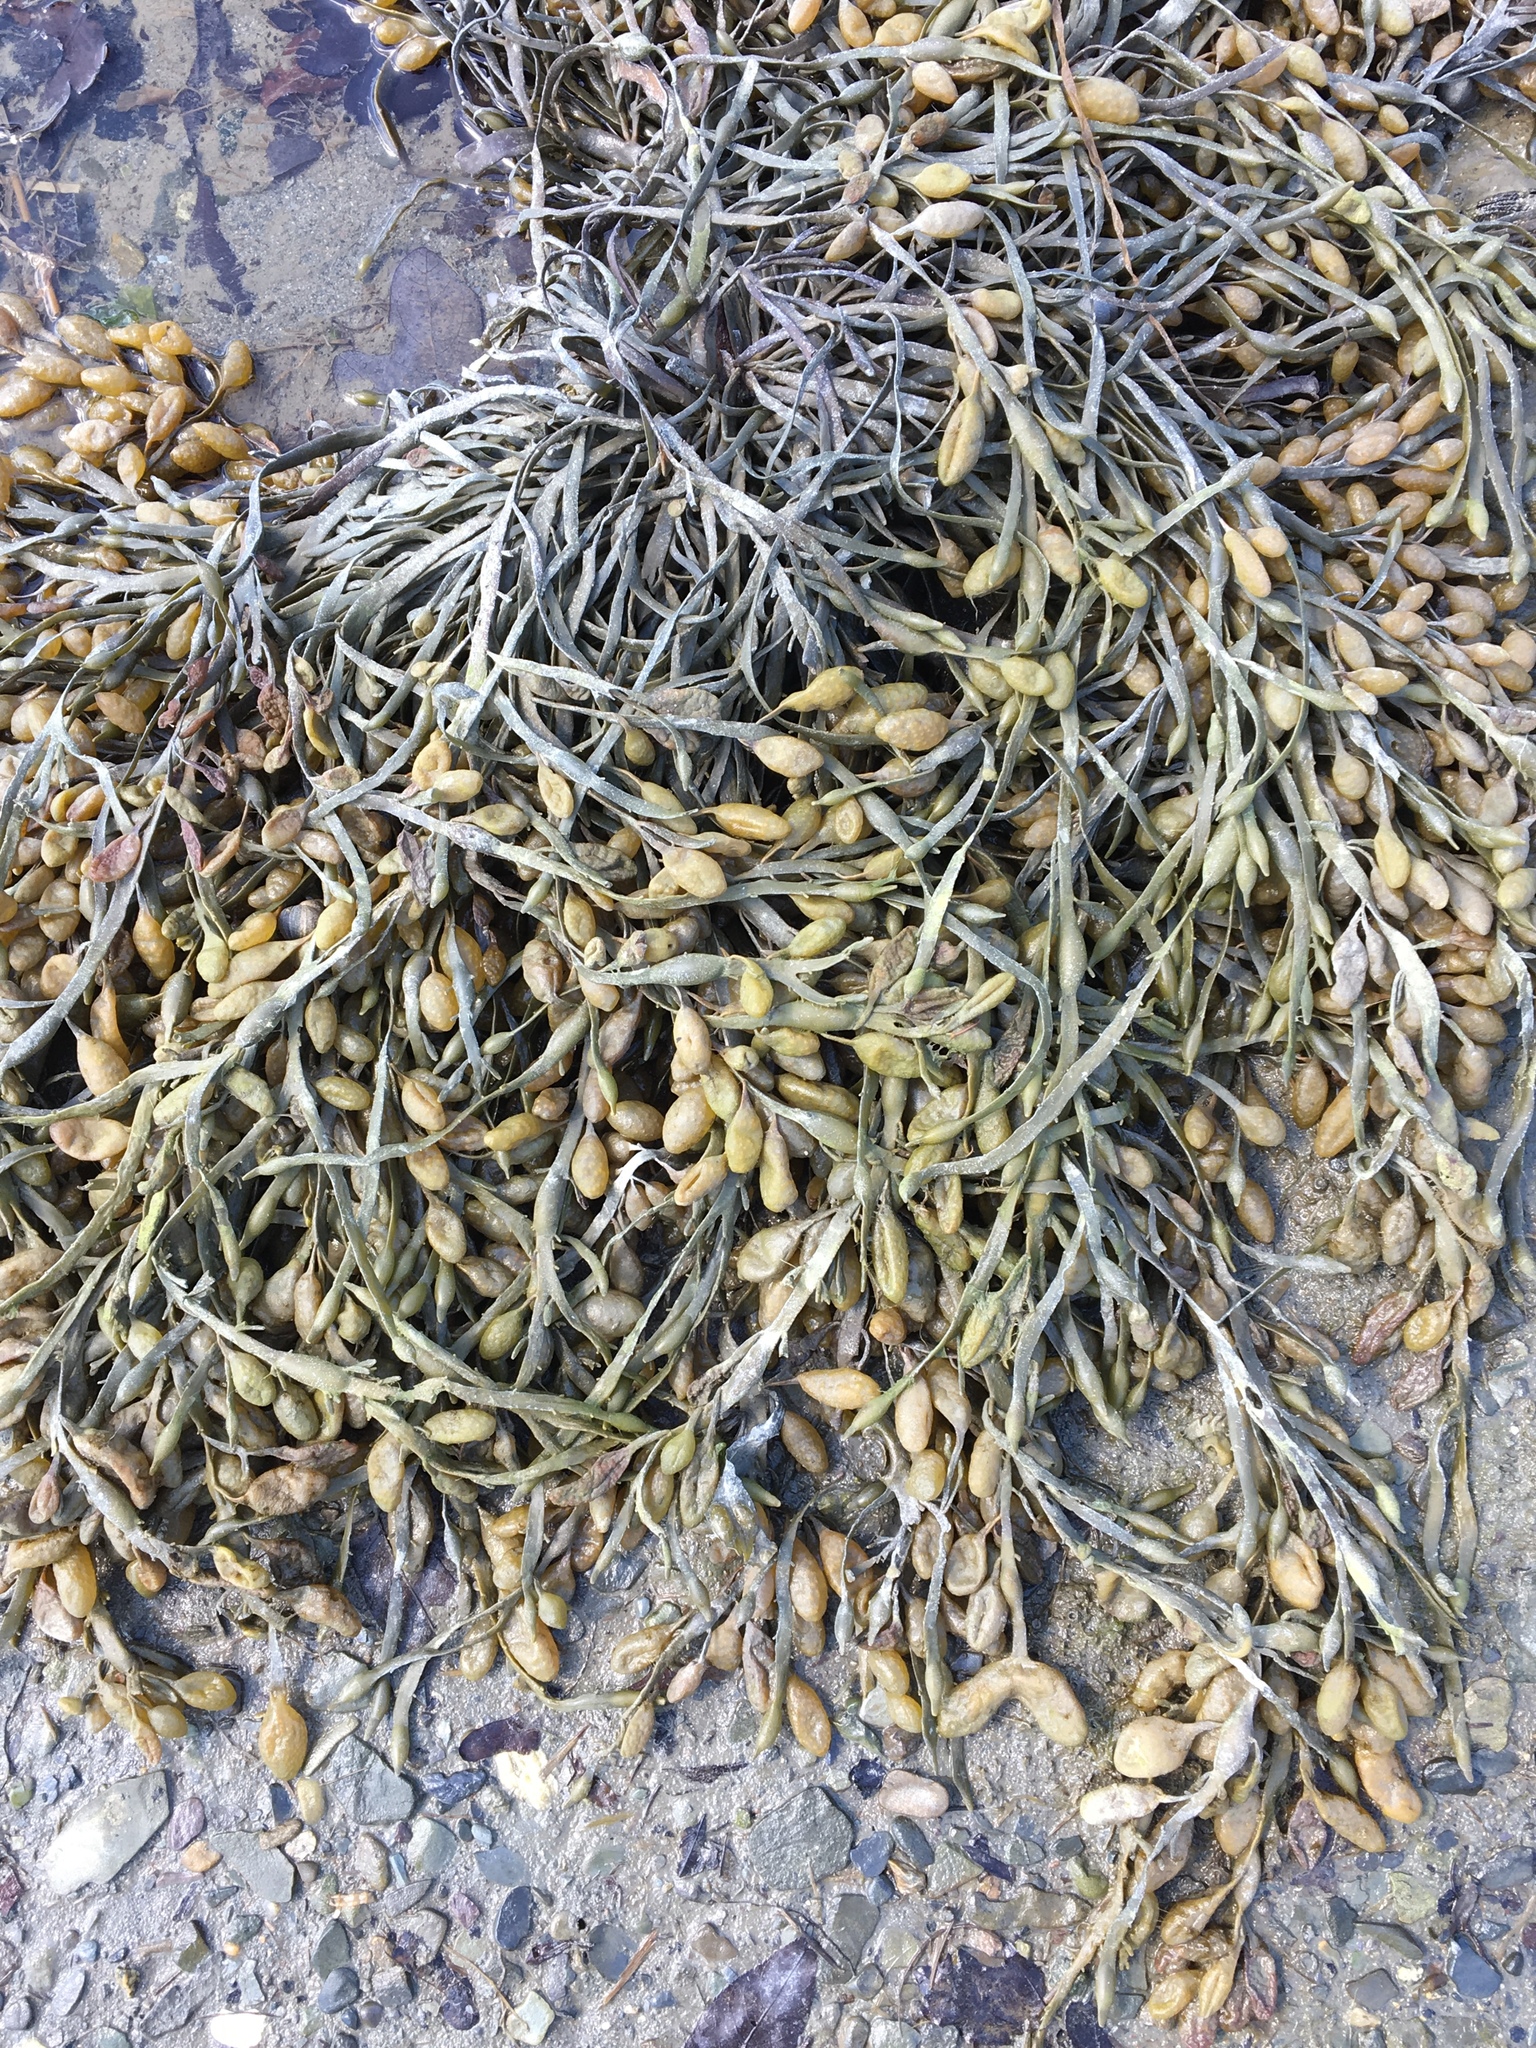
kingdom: Chromista
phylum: Ochrophyta
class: Phaeophyceae
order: Fucales
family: Fucaceae
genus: Ascophyllum
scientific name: Ascophyllum nodosum
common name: Knotted wrack
